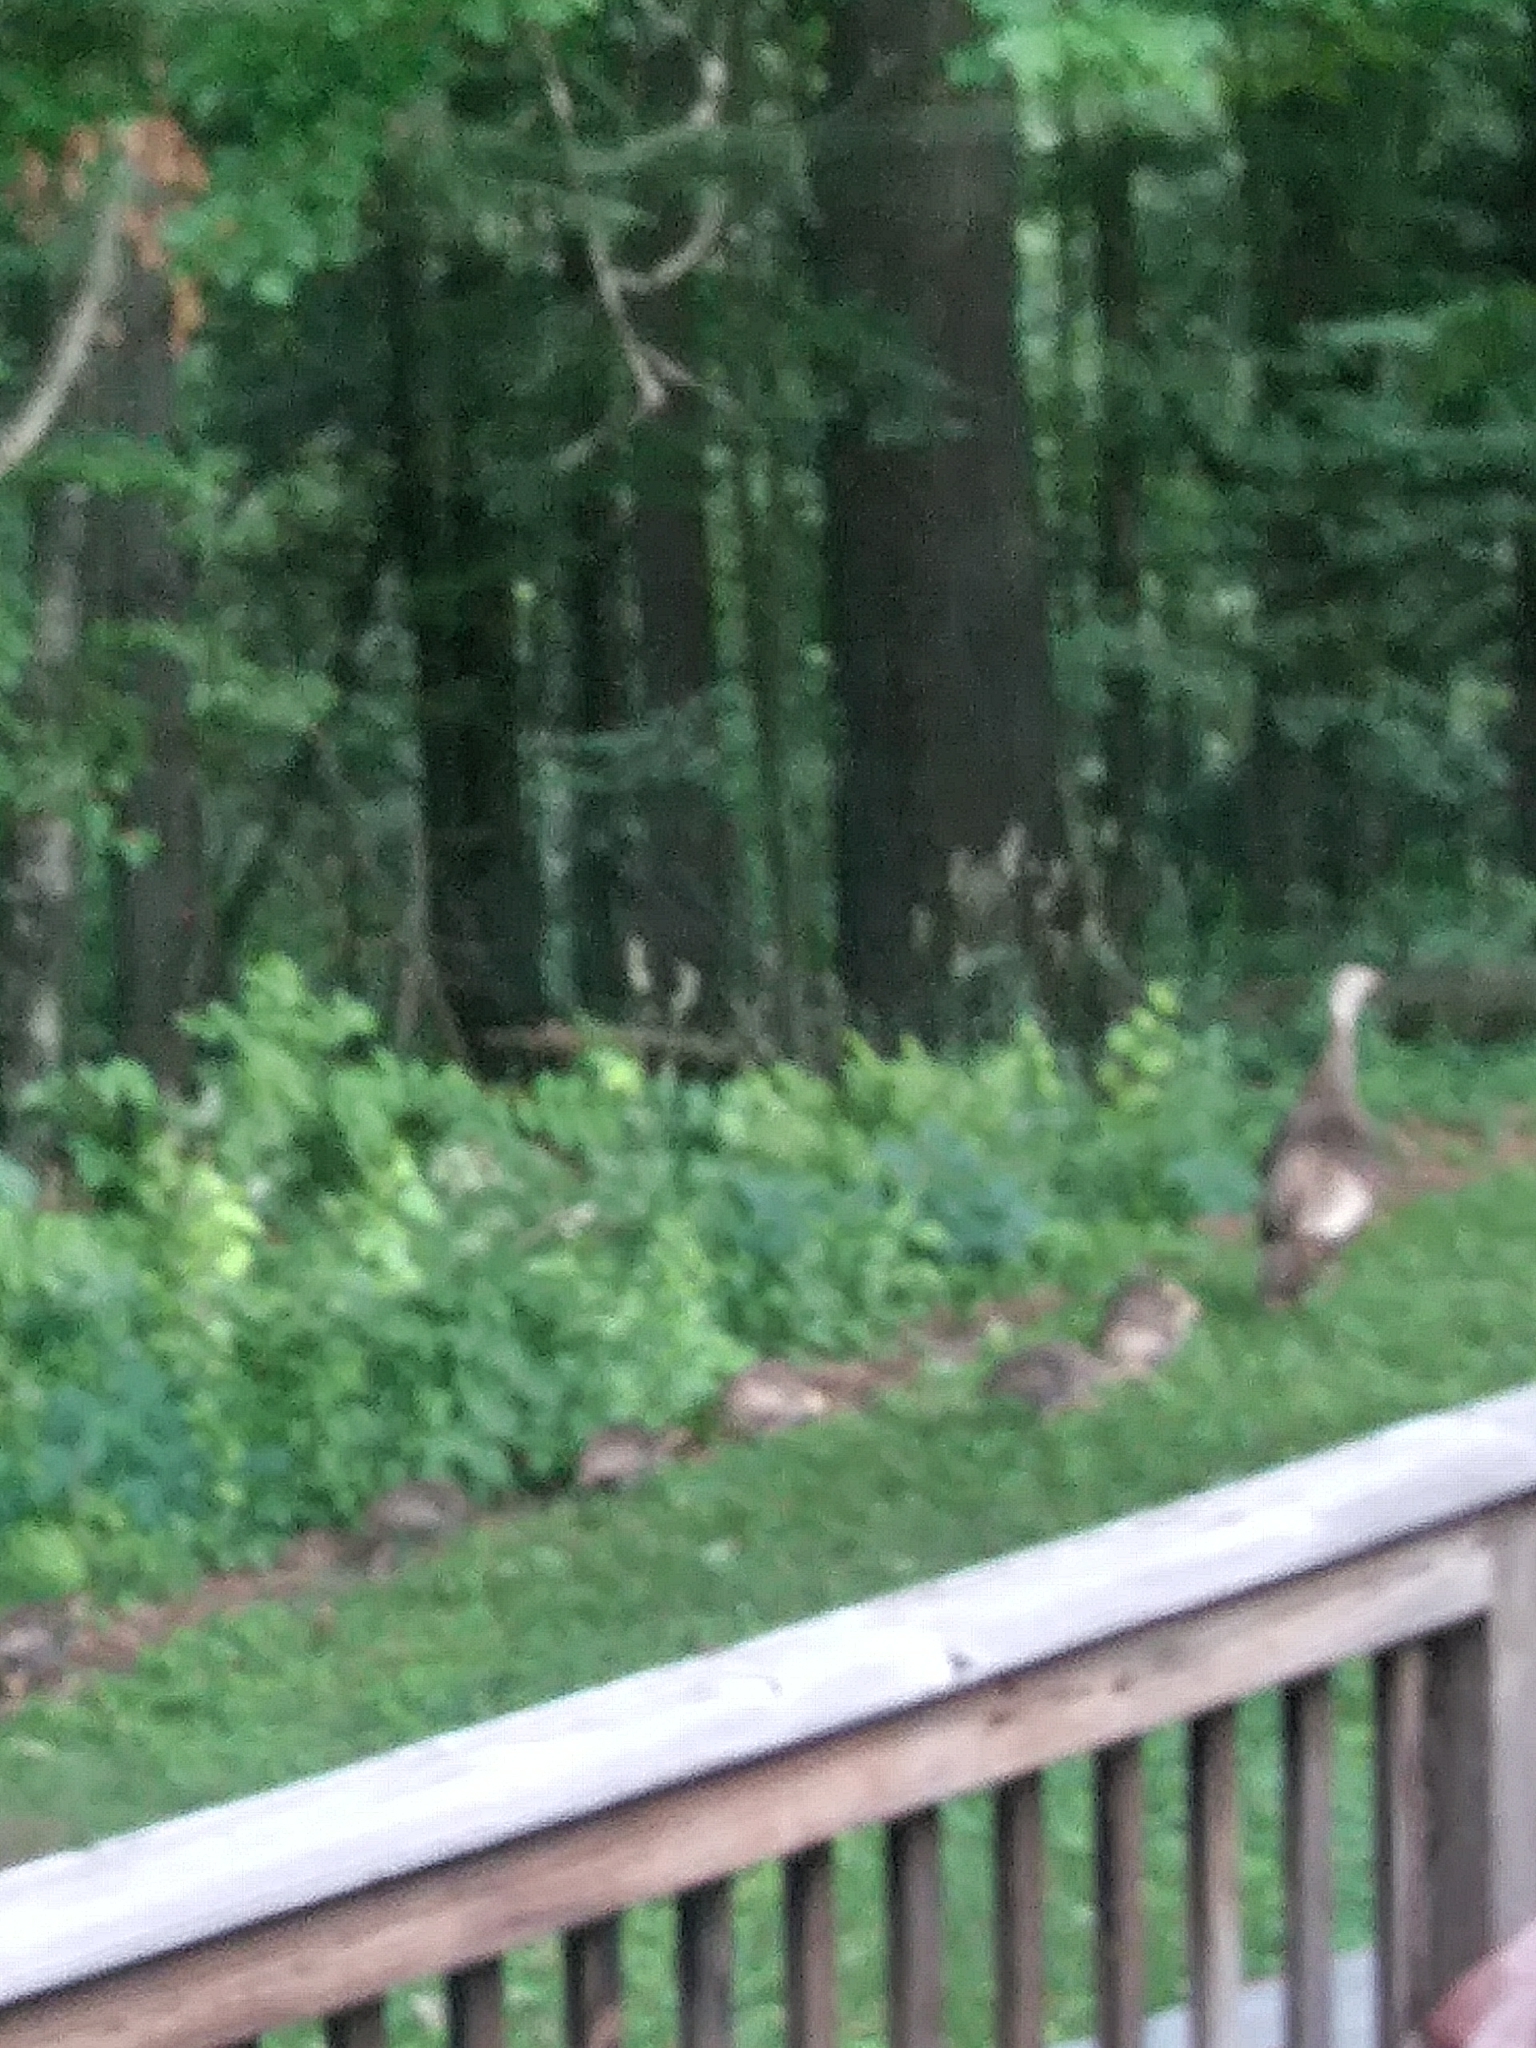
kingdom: Animalia
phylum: Chordata
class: Aves
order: Galliformes
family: Phasianidae
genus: Meleagris
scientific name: Meleagris gallopavo
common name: Wild turkey
